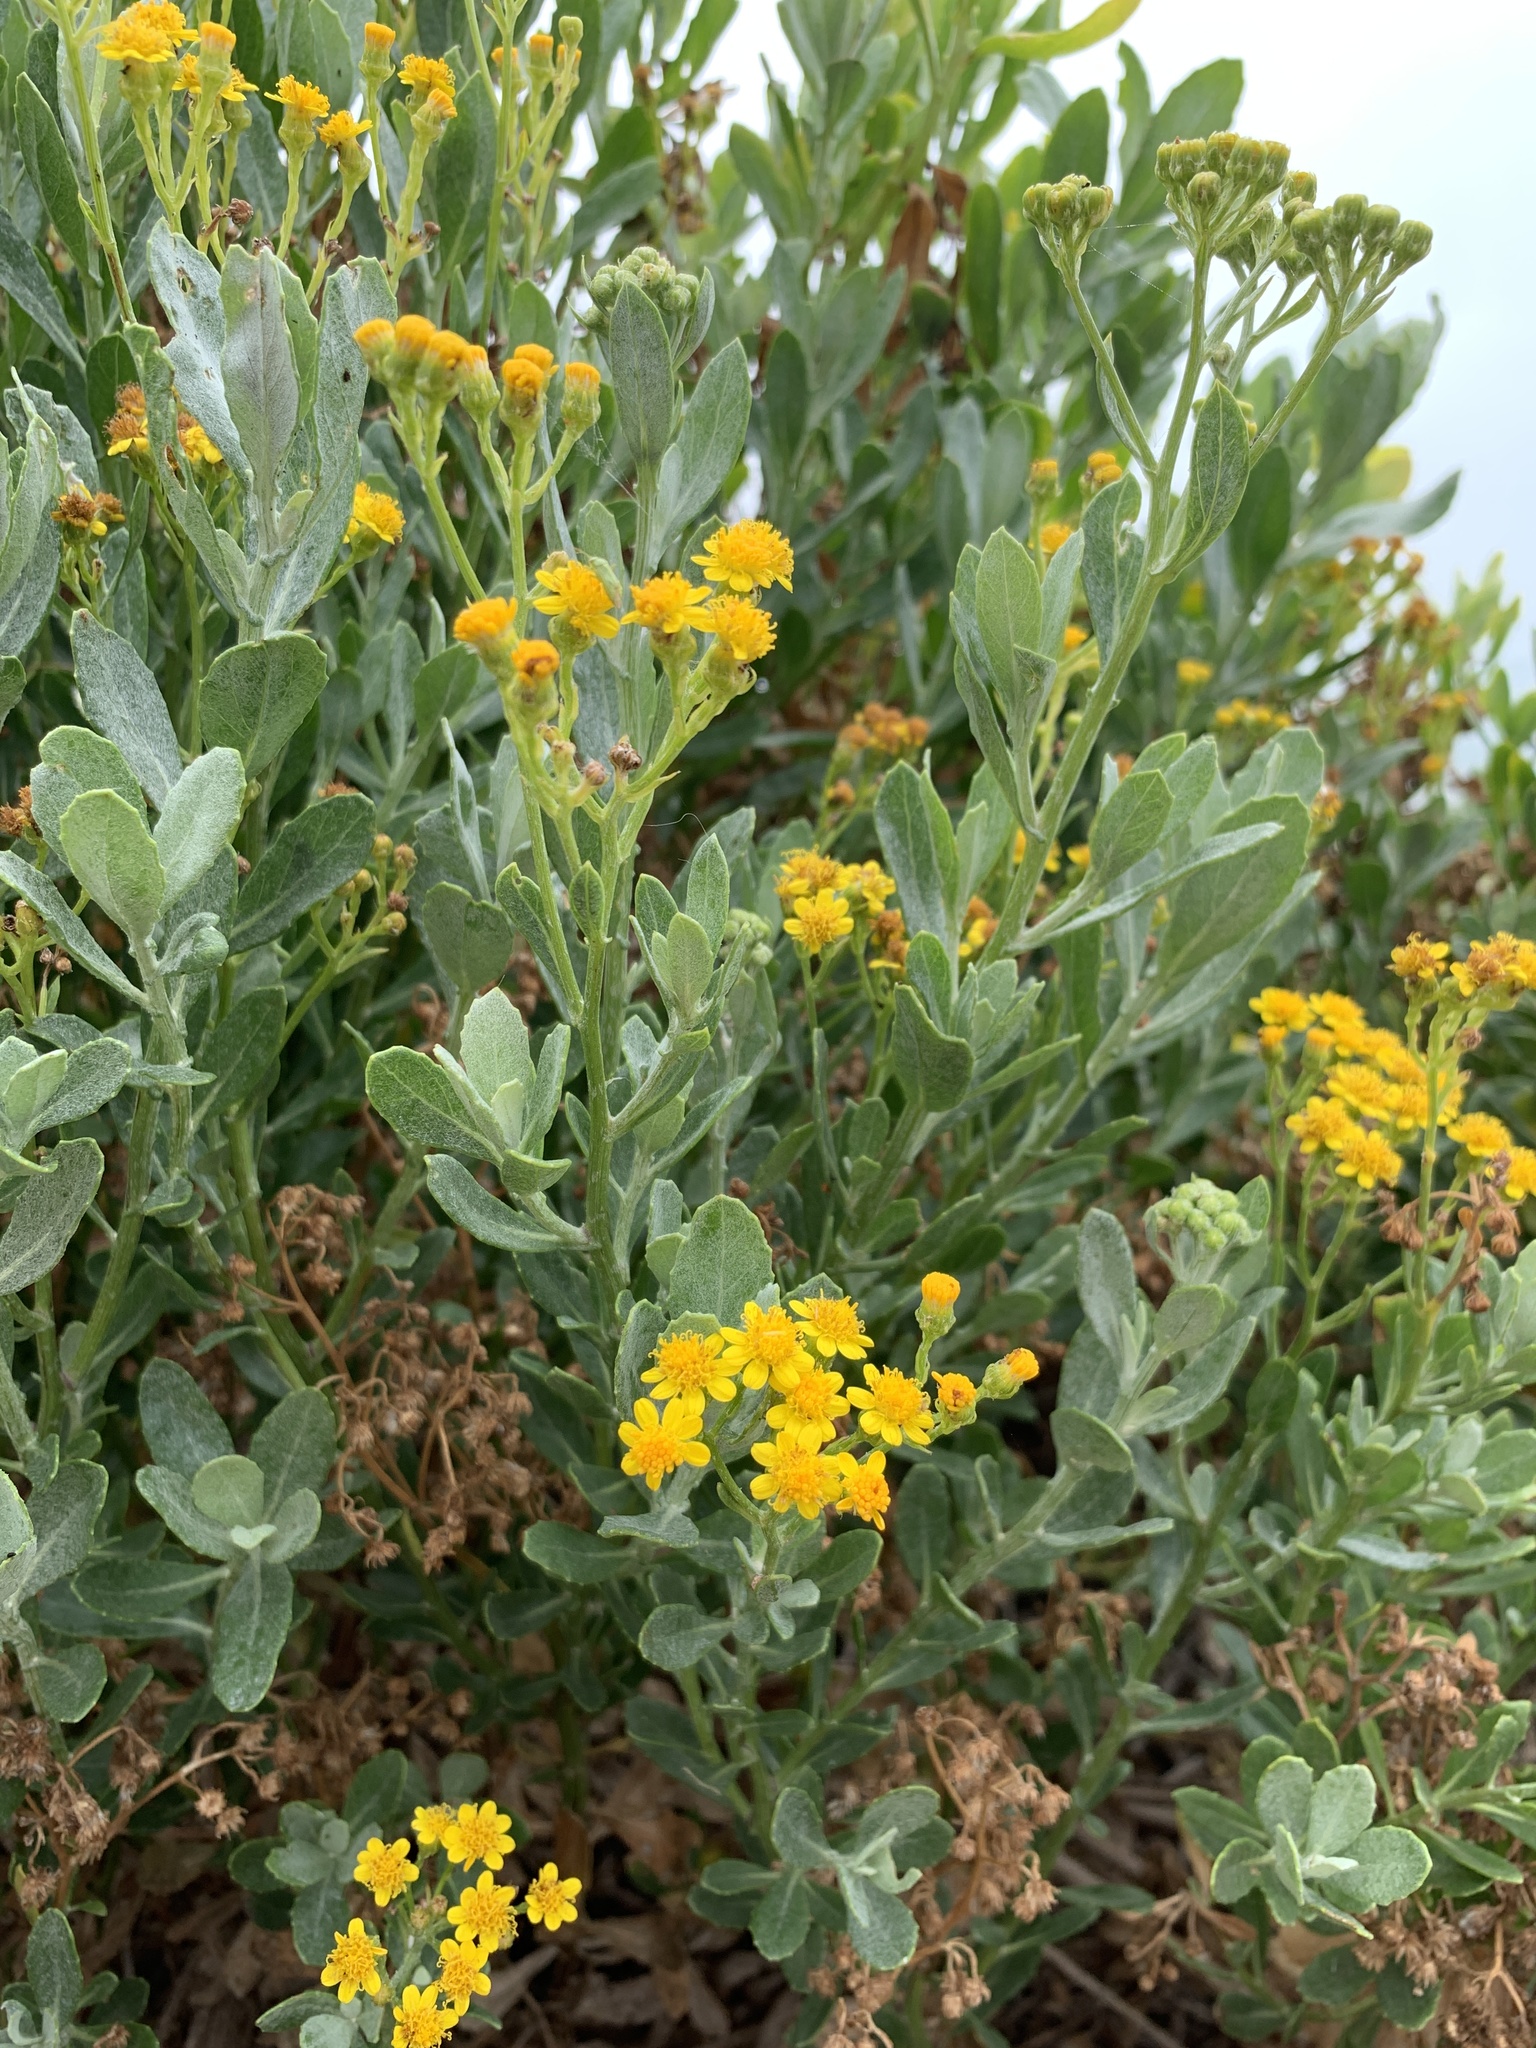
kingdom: Plantae
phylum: Tracheophyta
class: Magnoliopsida
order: Asterales
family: Asteraceae
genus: Senecio
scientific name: Senecio halimifolius
